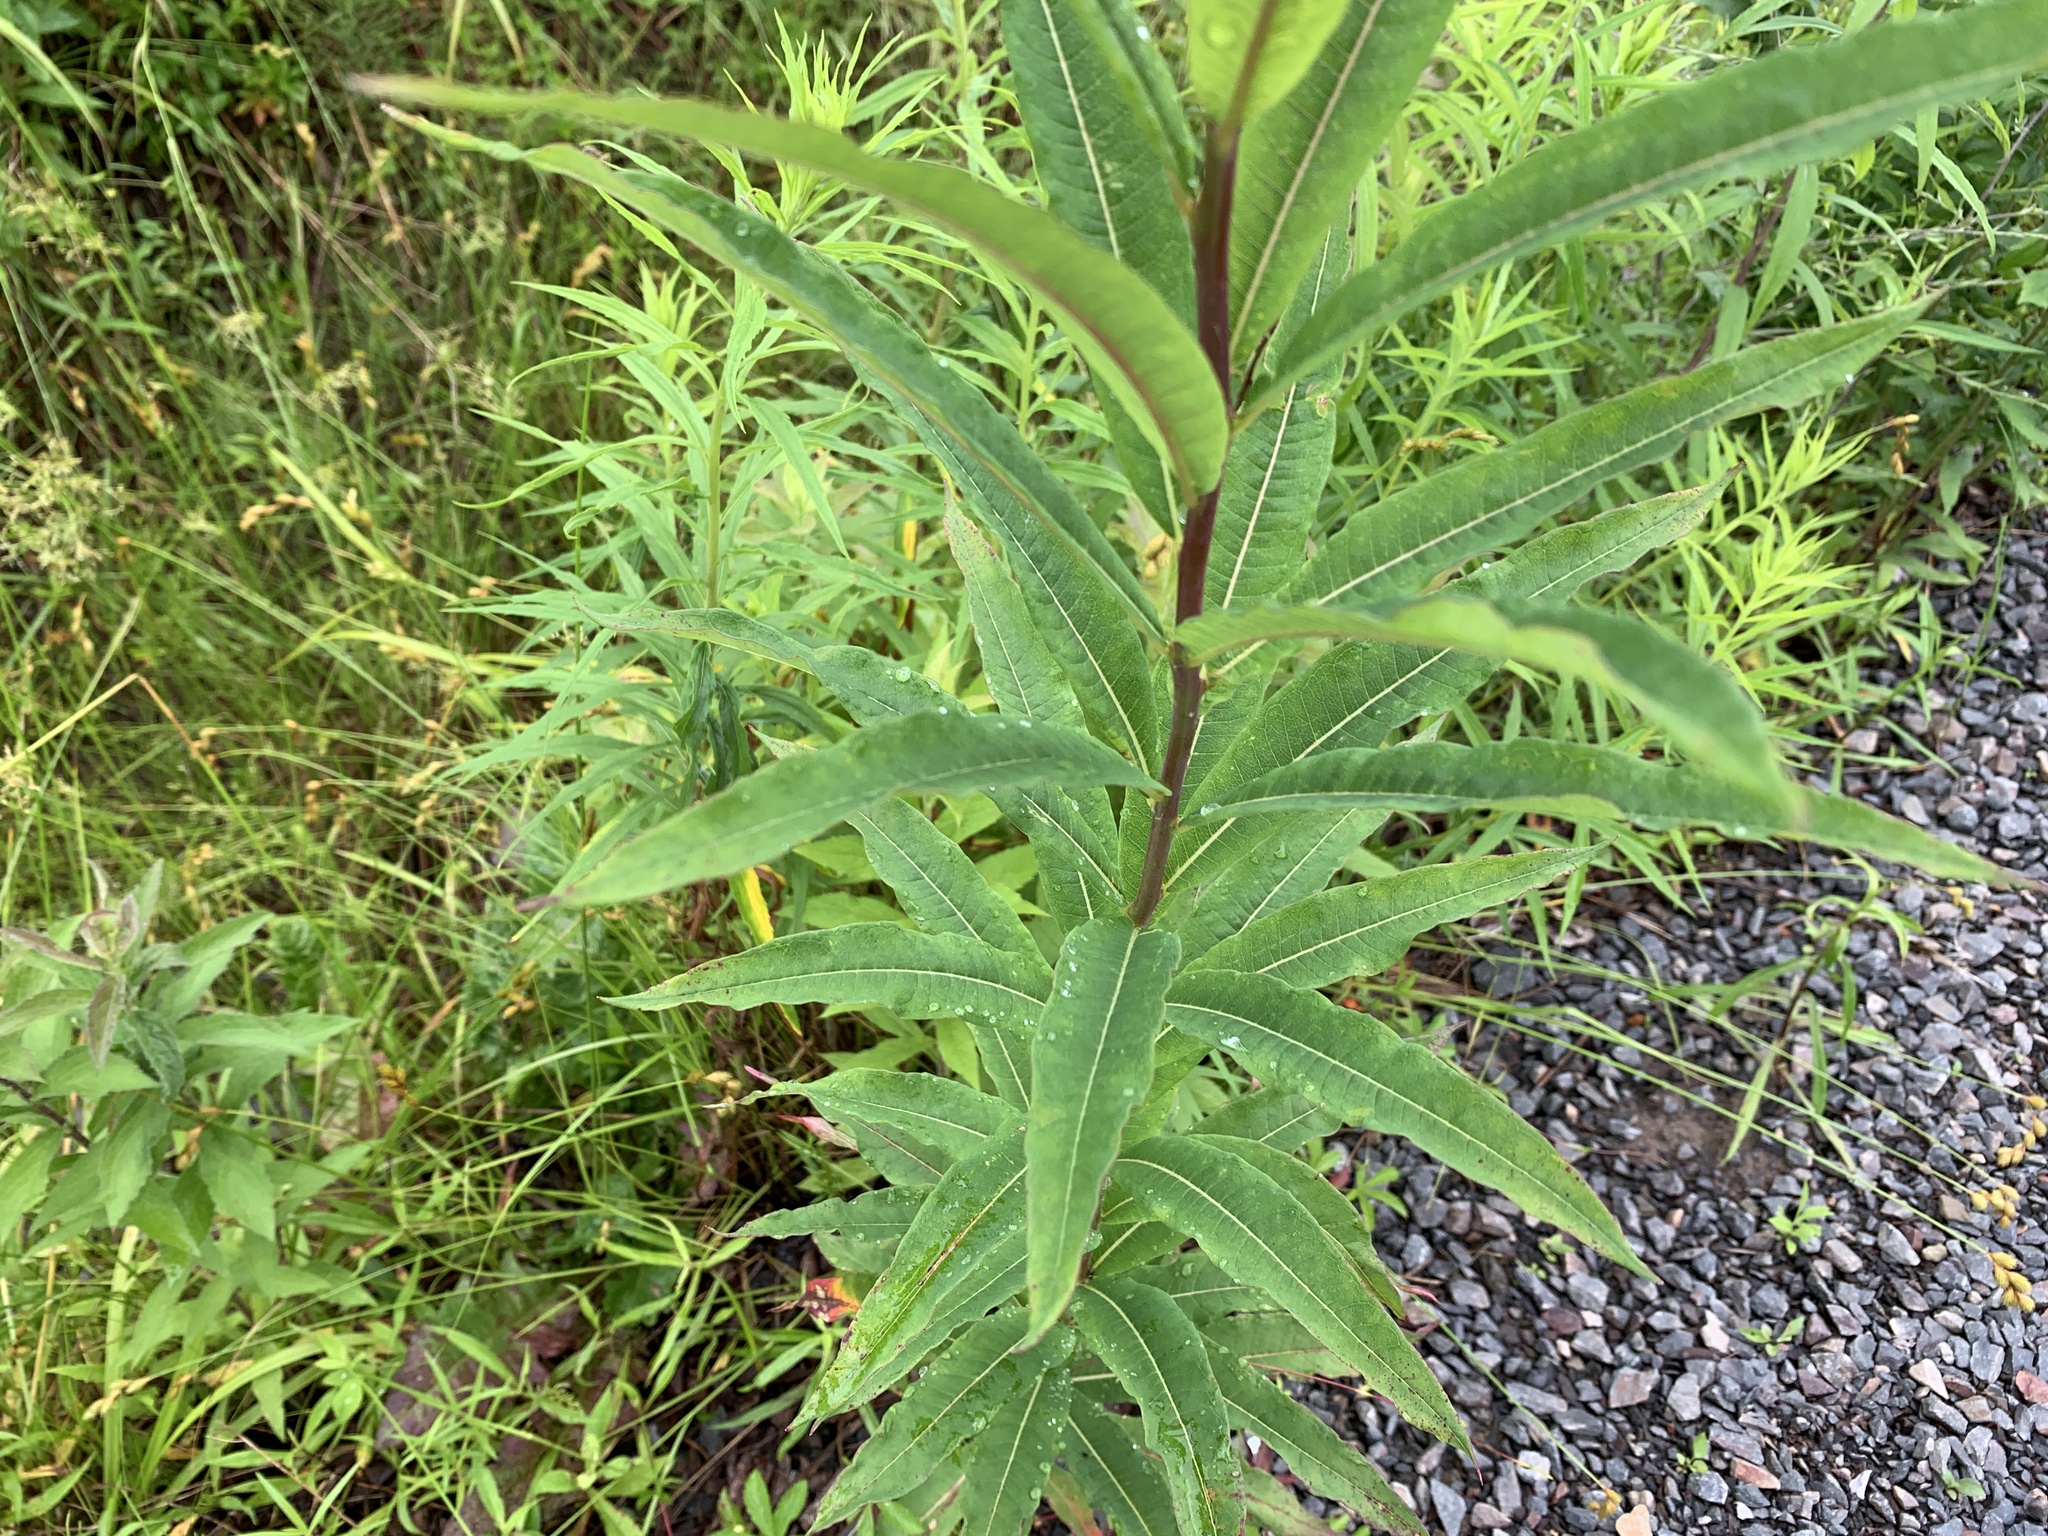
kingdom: Plantae
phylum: Tracheophyta
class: Magnoliopsida
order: Myrtales
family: Onagraceae
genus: Chamaenerion
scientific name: Chamaenerion angustifolium
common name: Fireweed
